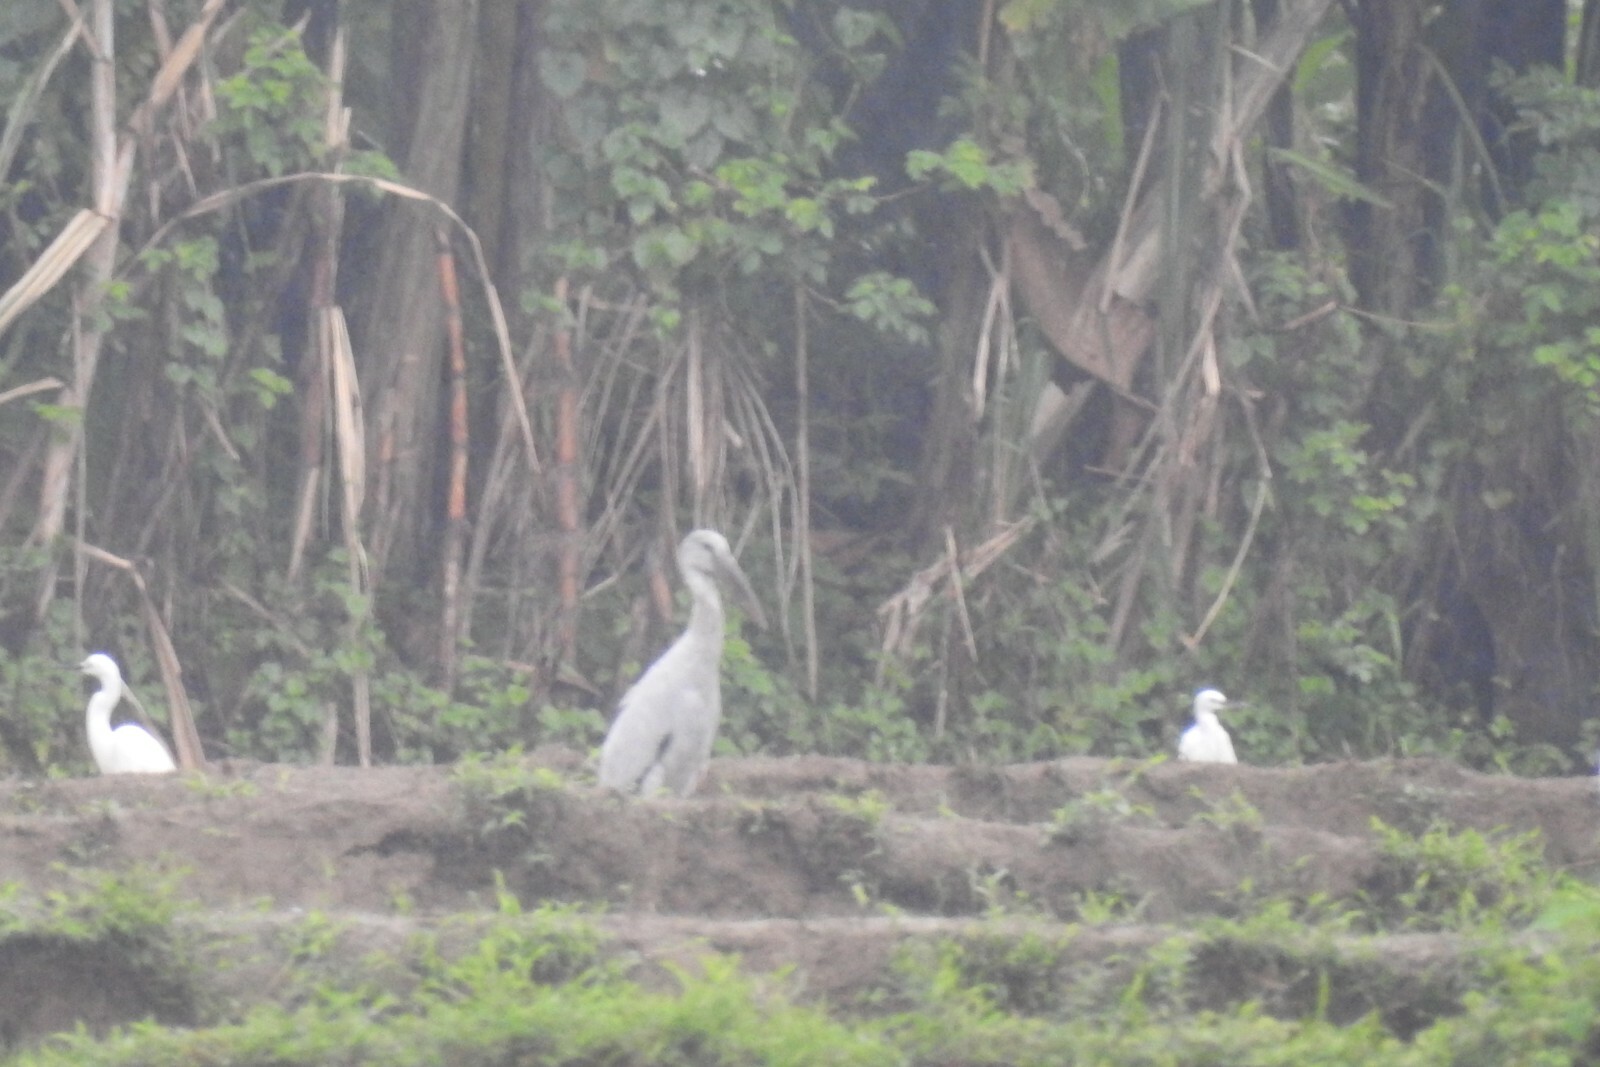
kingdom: Animalia
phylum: Chordata
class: Aves
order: Ciconiiformes
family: Ciconiidae
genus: Anastomus
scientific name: Anastomus oscitans
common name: Asian openbill
